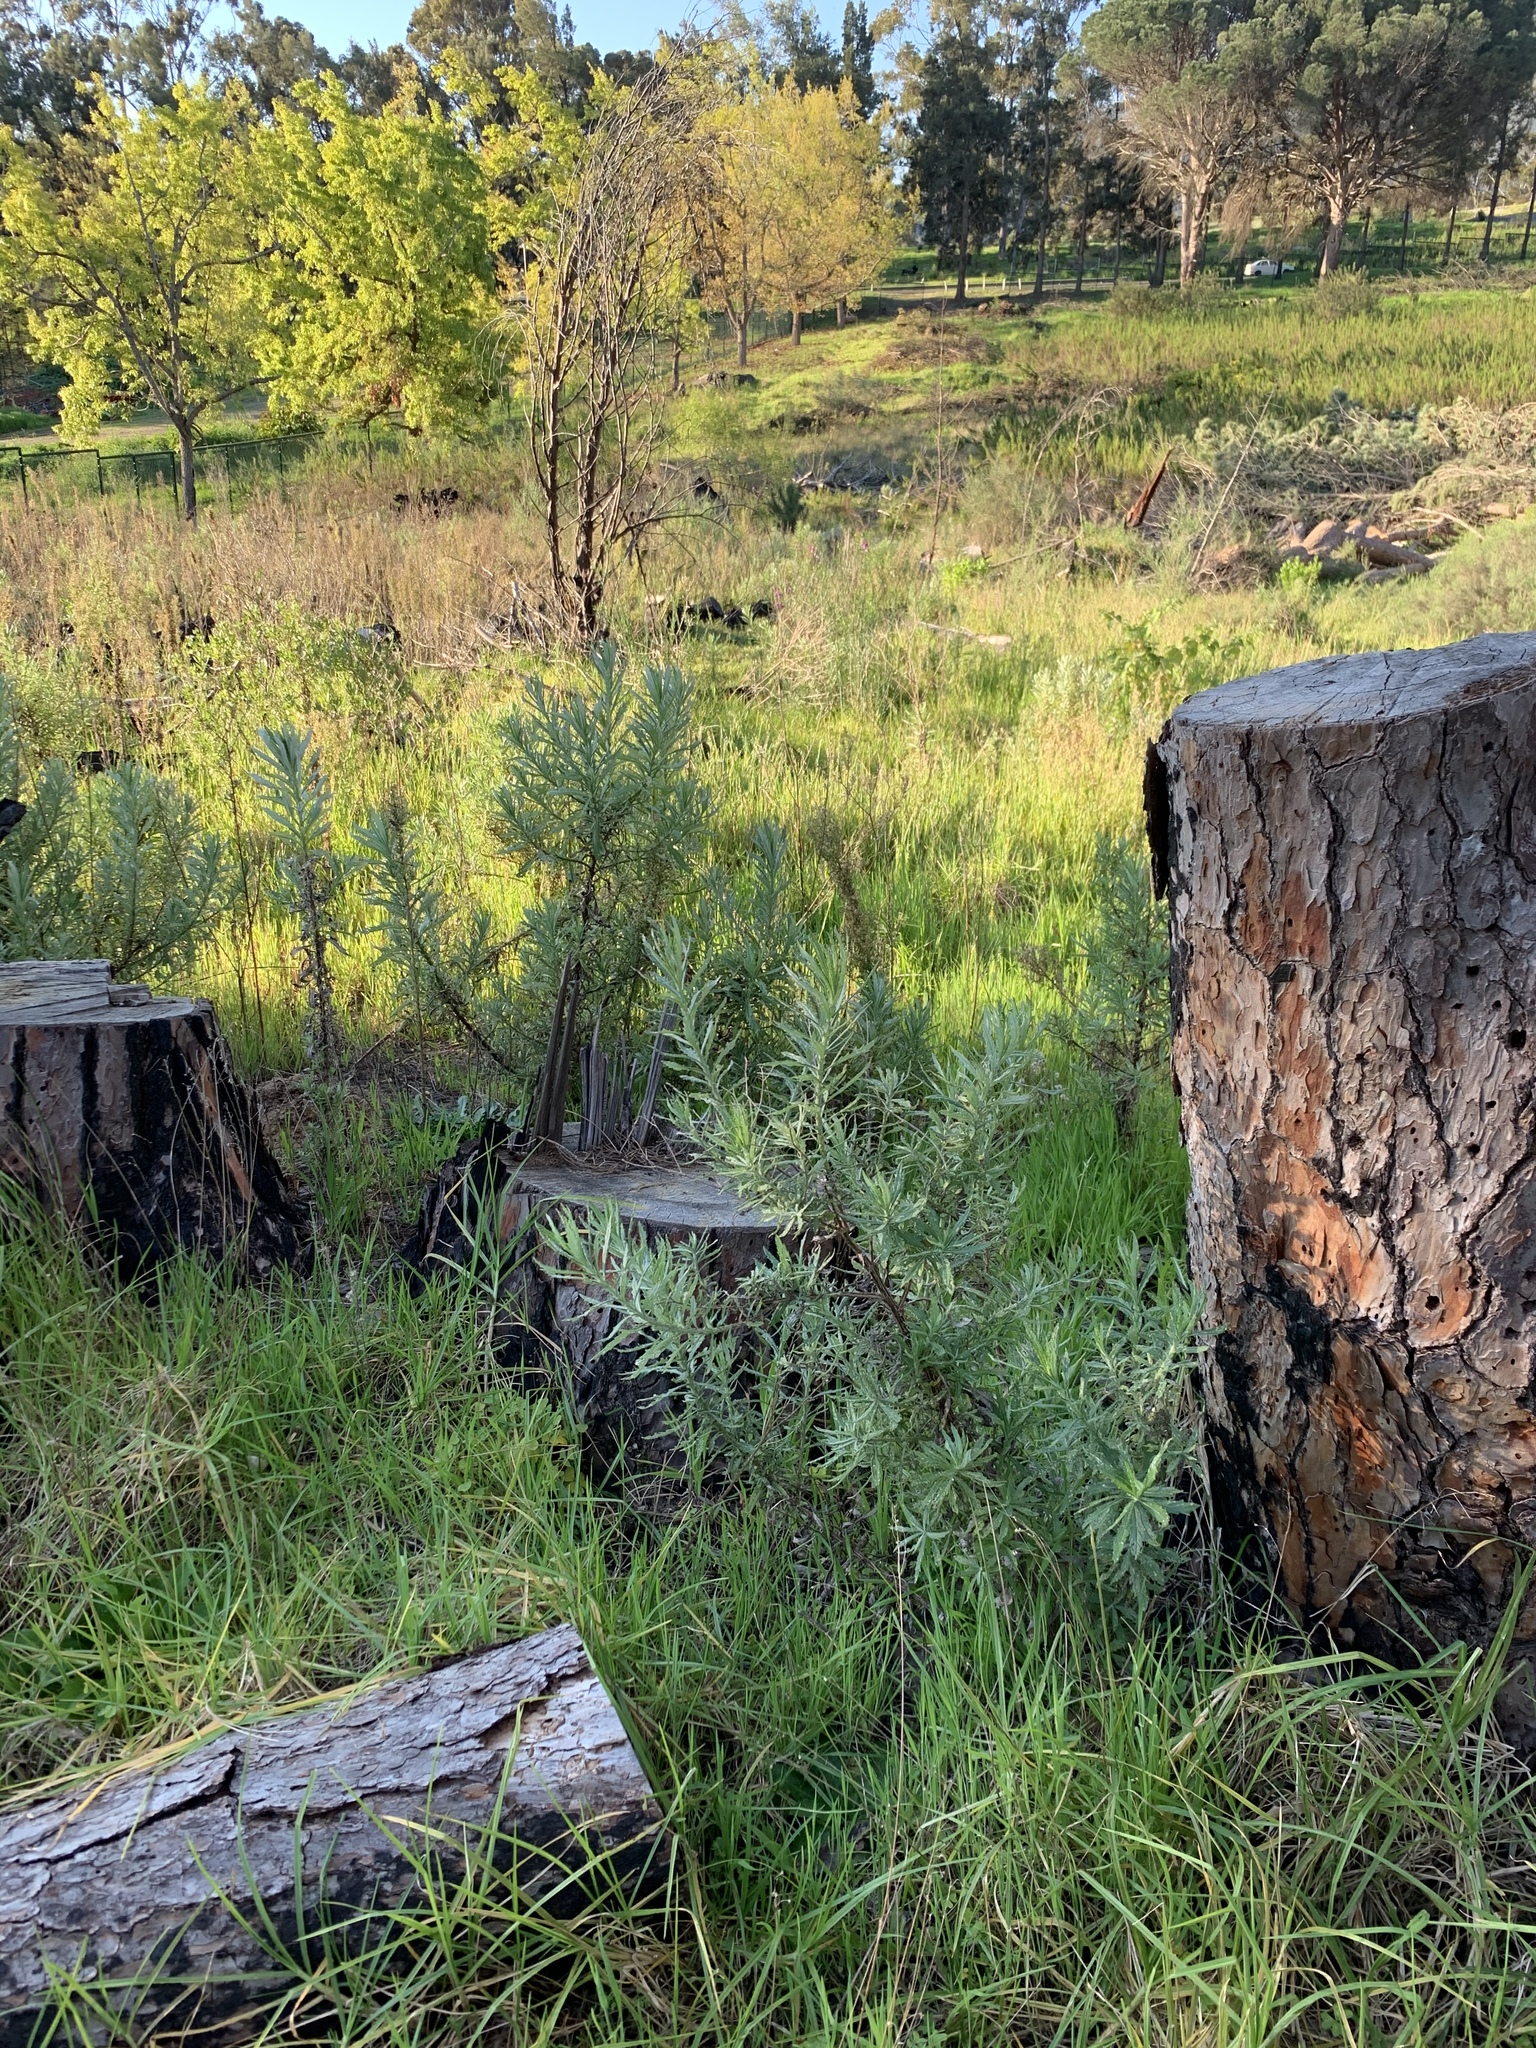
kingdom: Plantae
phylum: Tracheophyta
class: Magnoliopsida
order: Asterales
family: Asteraceae
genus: Senecio
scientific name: Senecio pterophorus
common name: Shoddy ragwort
